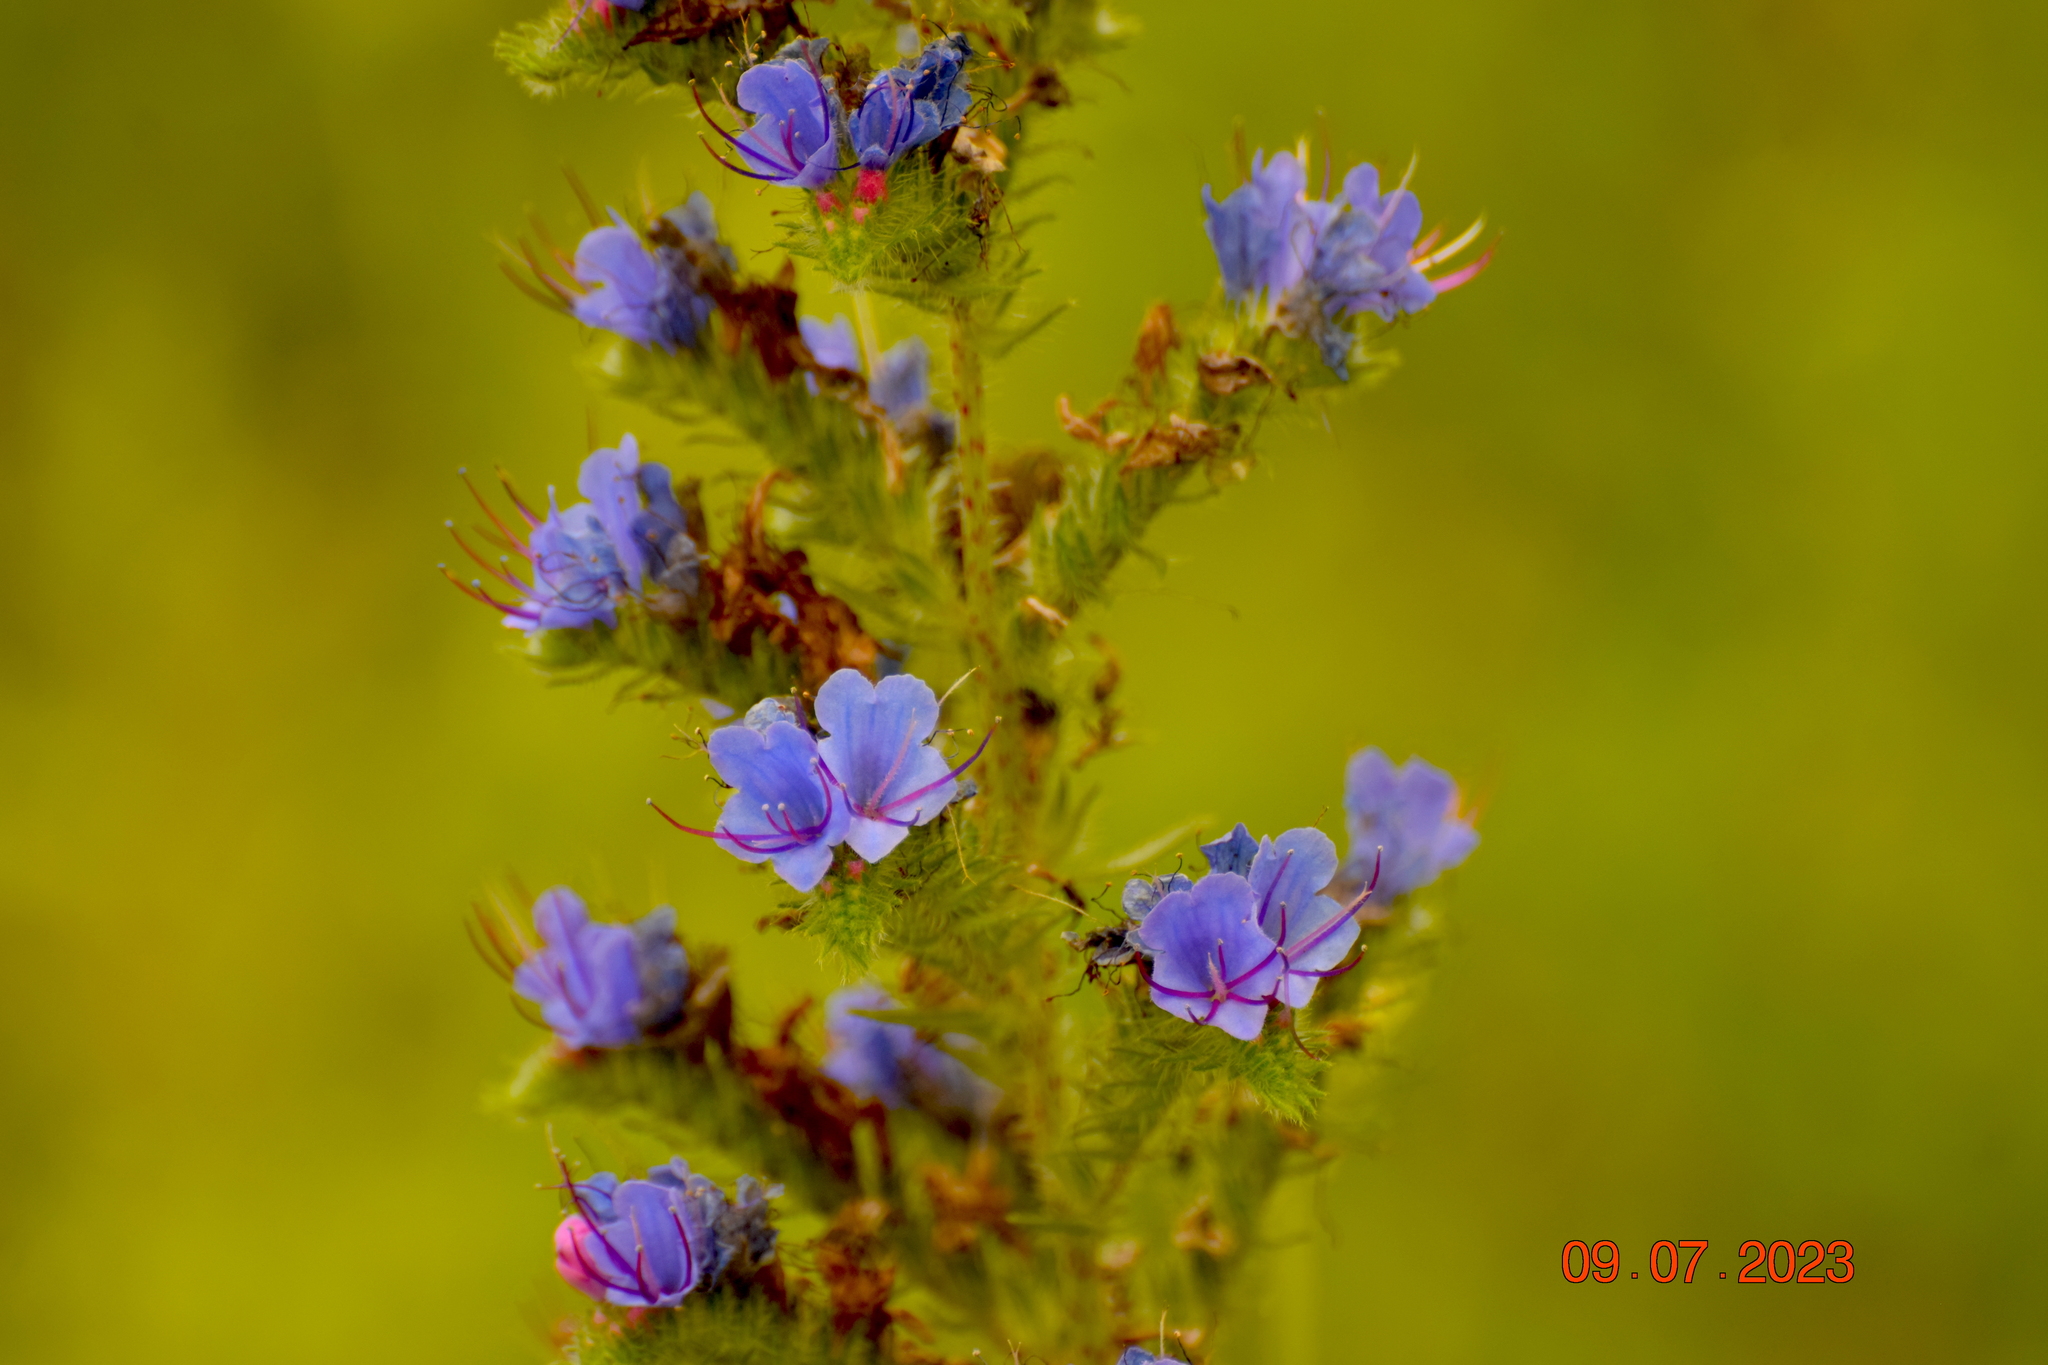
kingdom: Plantae
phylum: Tracheophyta
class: Magnoliopsida
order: Boraginales
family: Boraginaceae
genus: Echium
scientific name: Echium vulgare
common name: Common viper's bugloss
